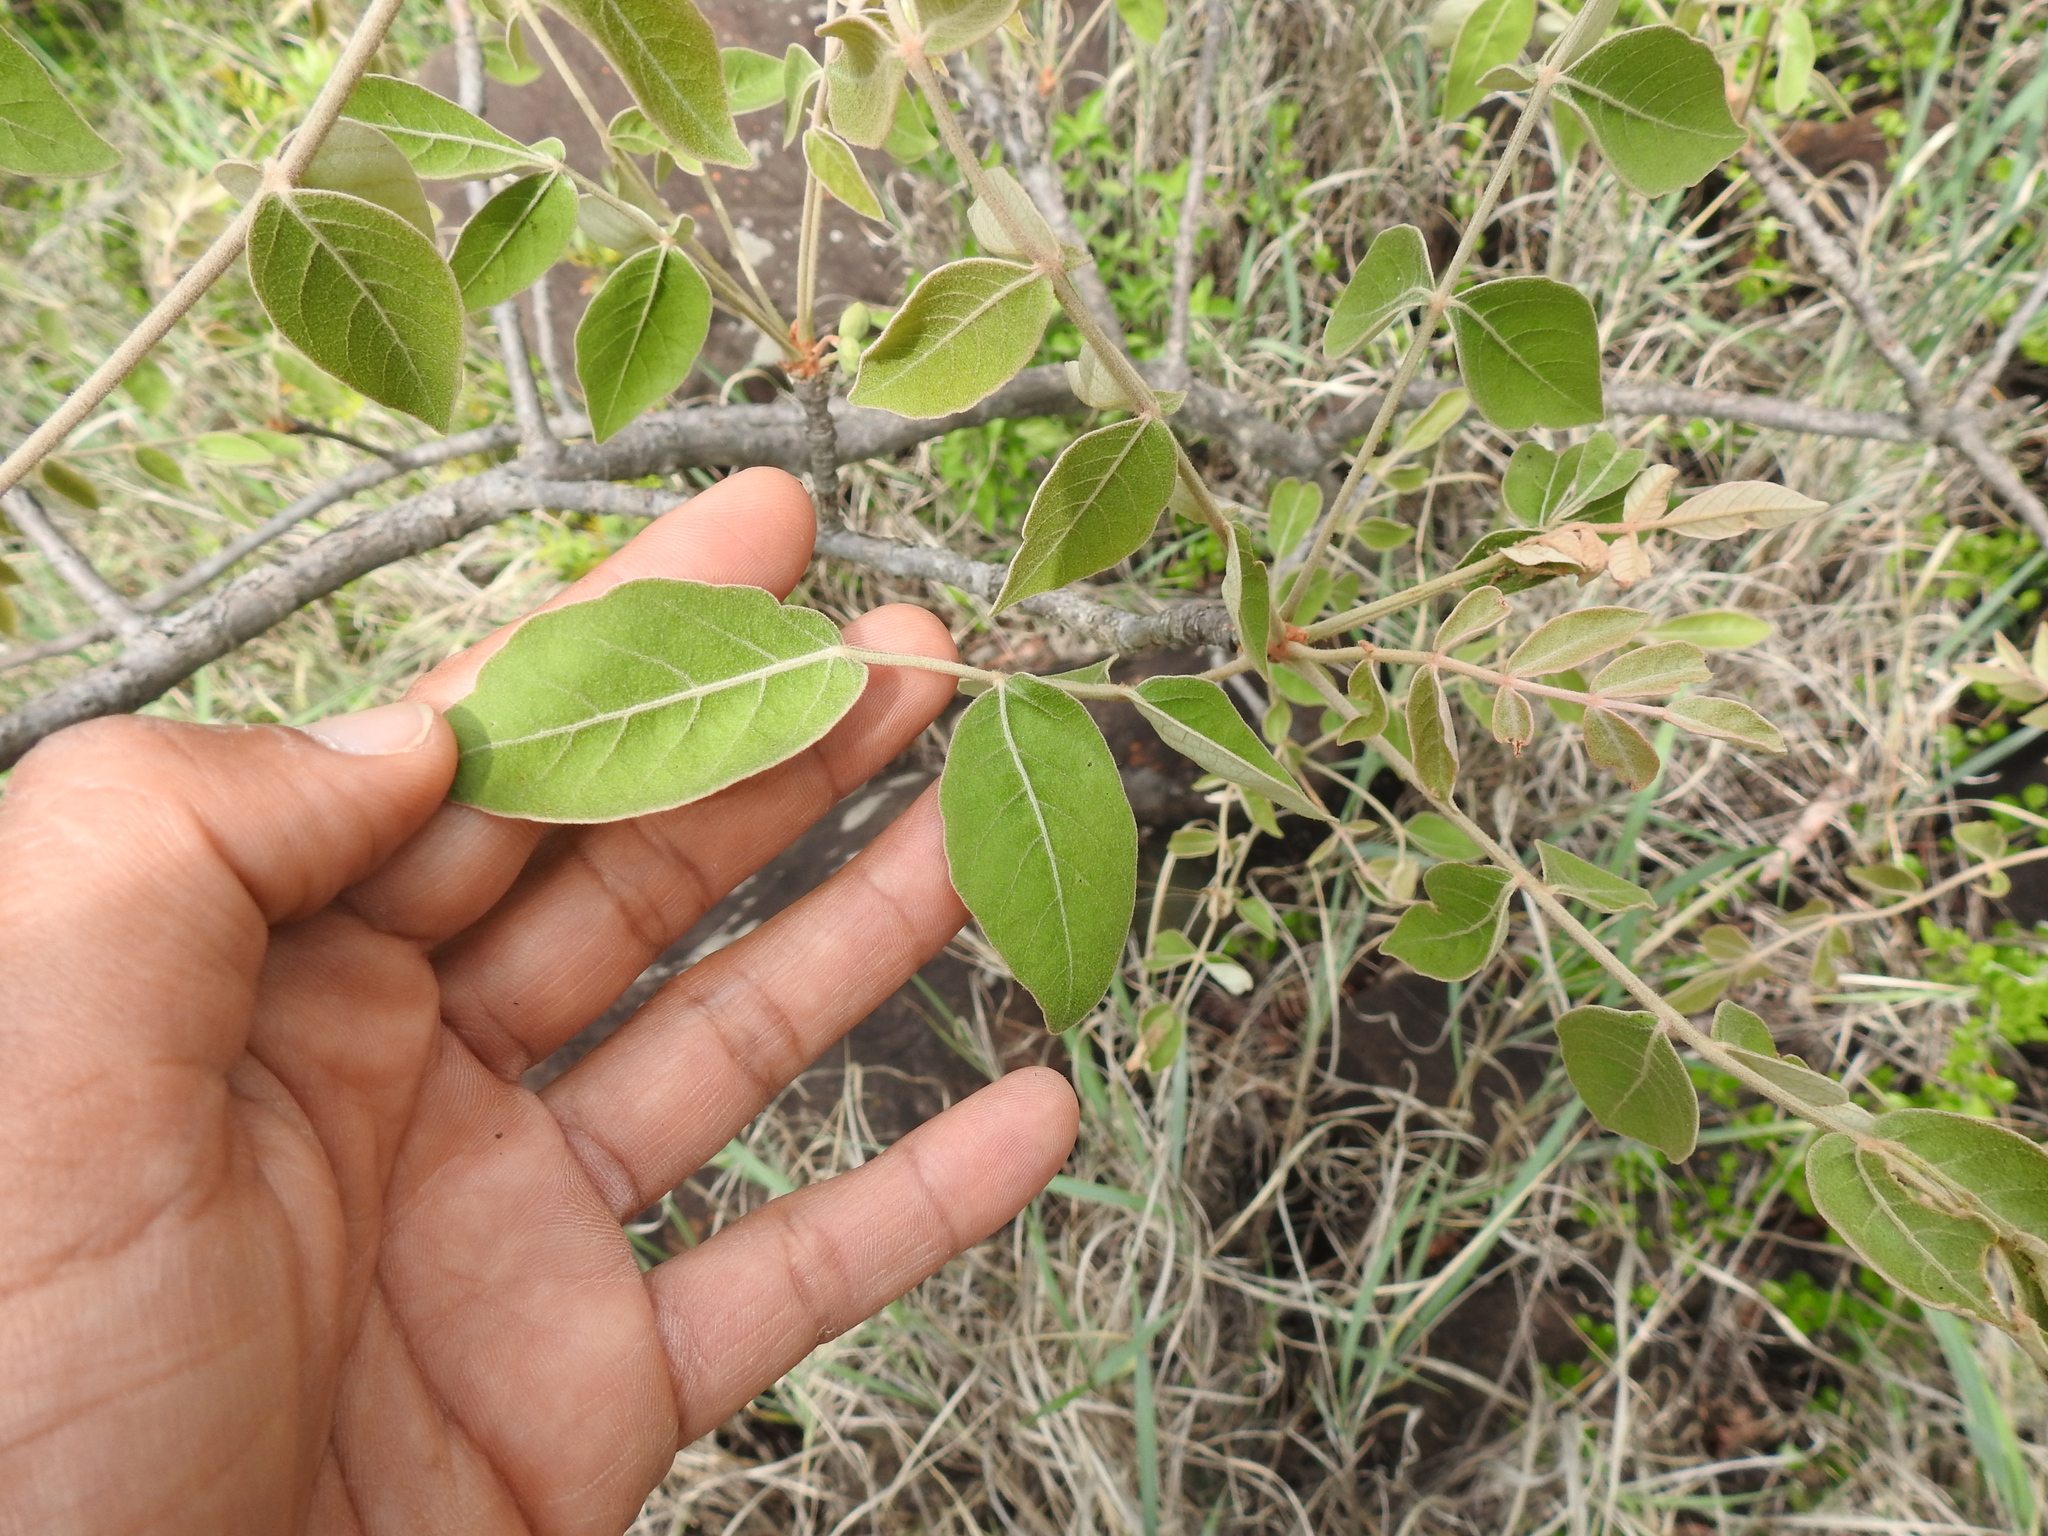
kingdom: Plantae
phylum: Tracheophyta
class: Magnoliopsida
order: Sapindales
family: Anacardiaceae
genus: Lannea
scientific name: Lannea discolor
